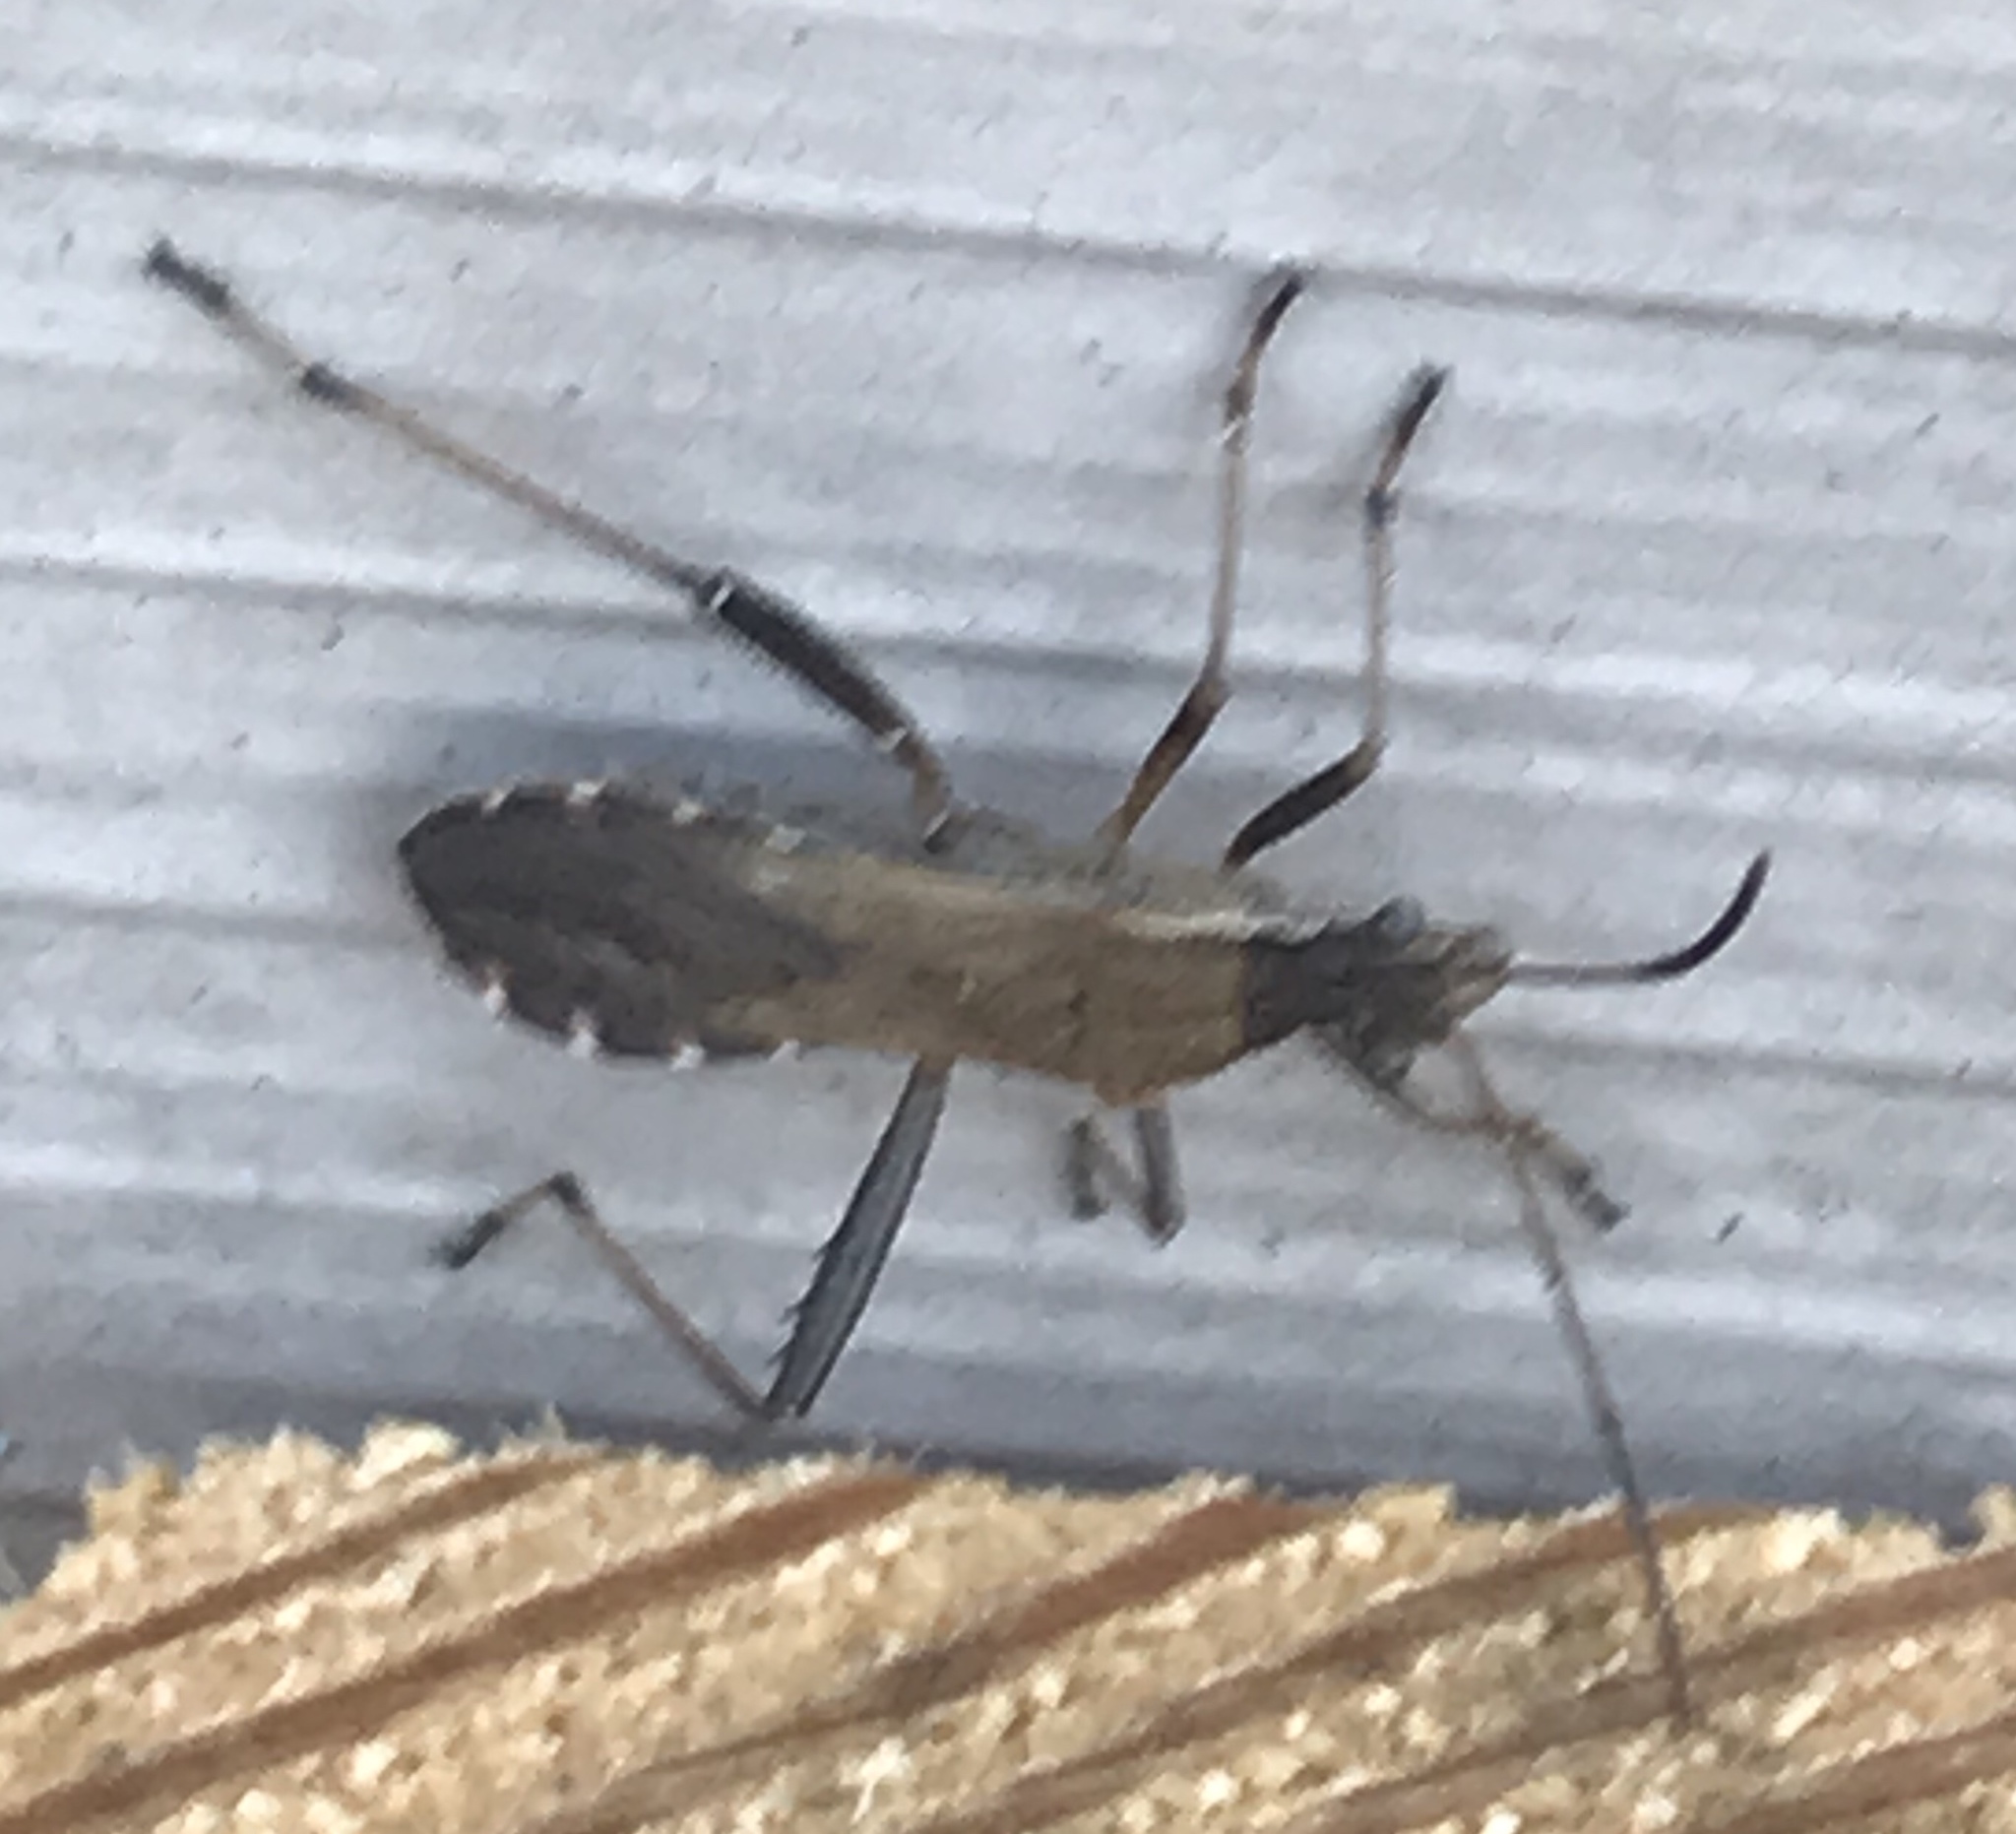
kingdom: Animalia
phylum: Arthropoda
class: Insecta
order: Hemiptera
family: Alydidae
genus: Alydus
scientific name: Alydus pilosulus
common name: Broad-headed bug
